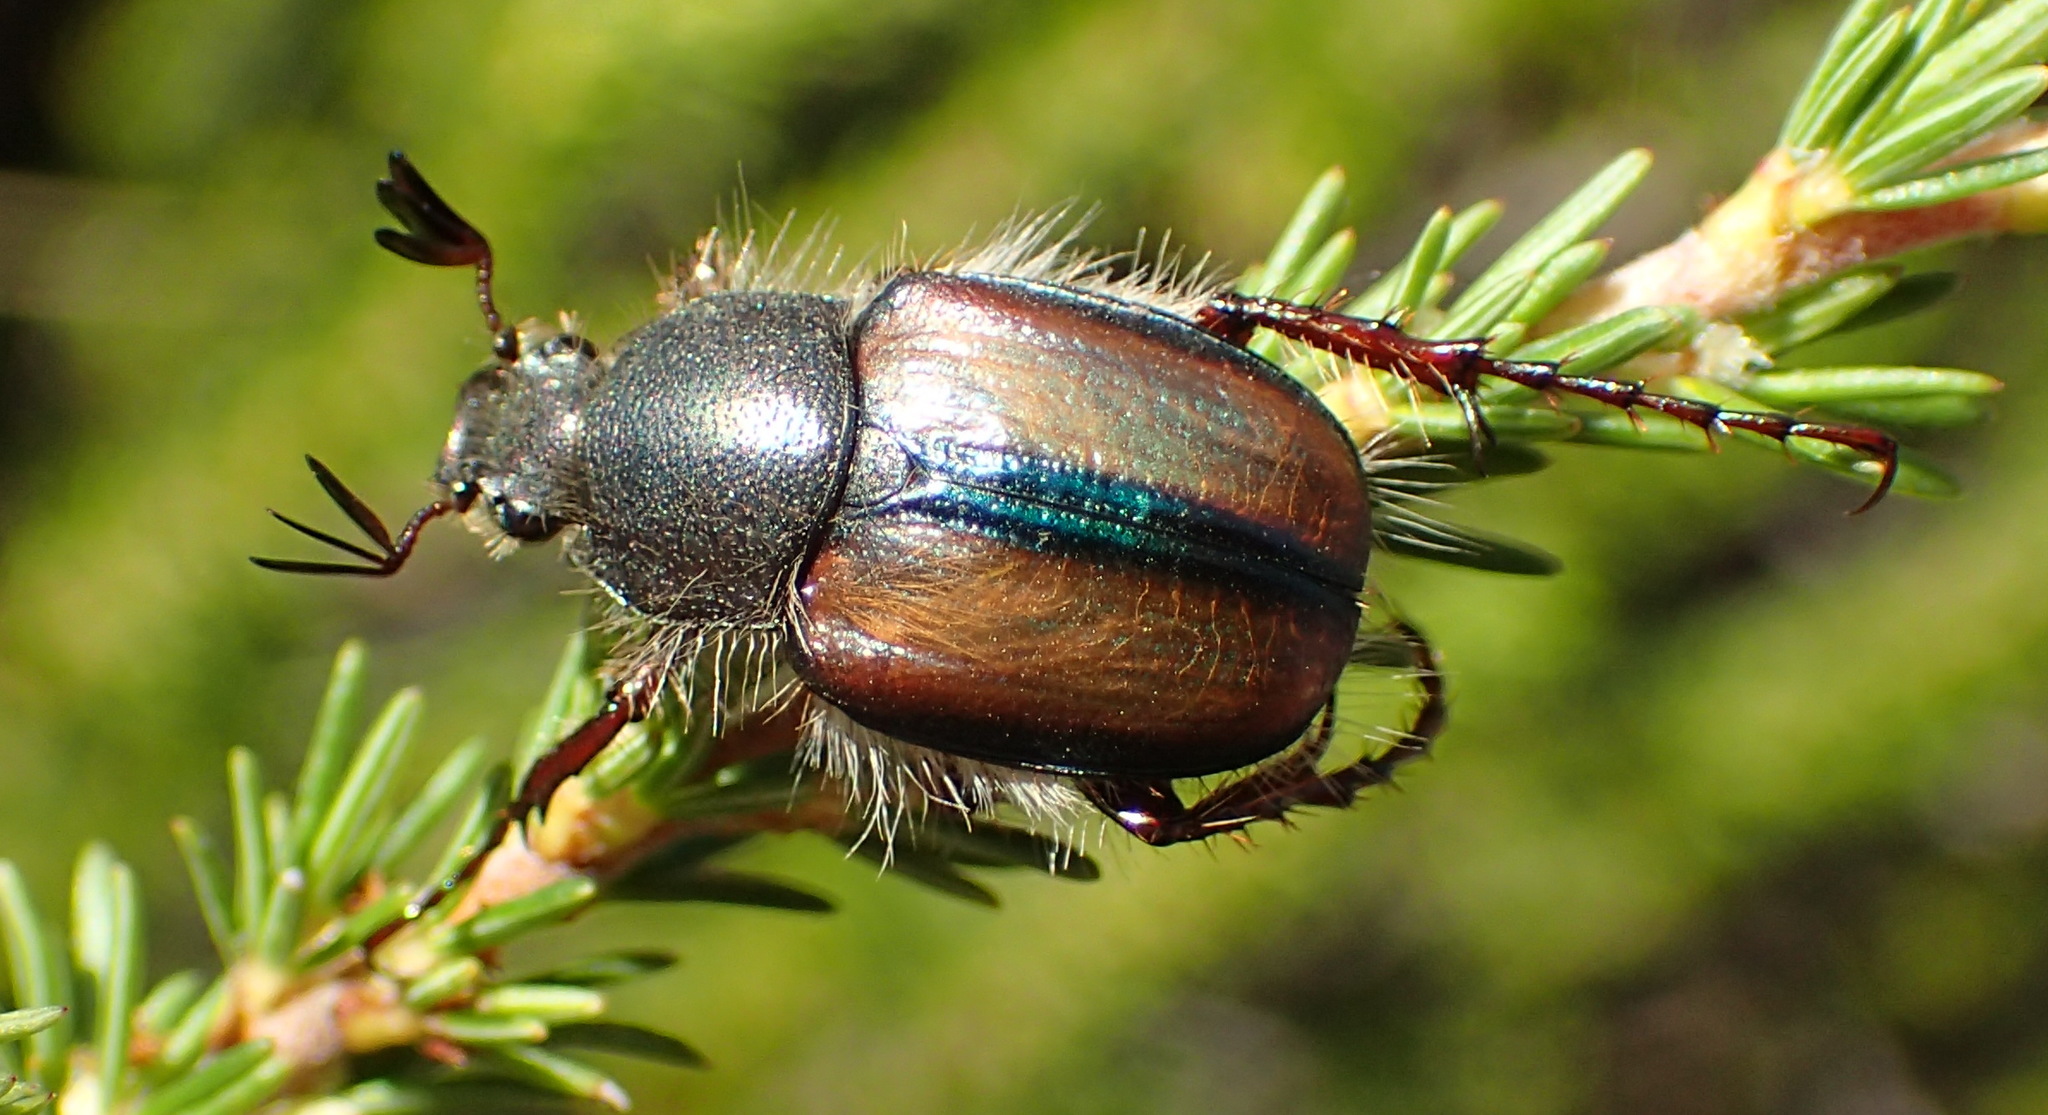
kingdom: Animalia
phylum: Arthropoda
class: Insecta
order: Coleoptera
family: Scarabaeidae
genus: Stegopterus
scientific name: Stegopterus septus
